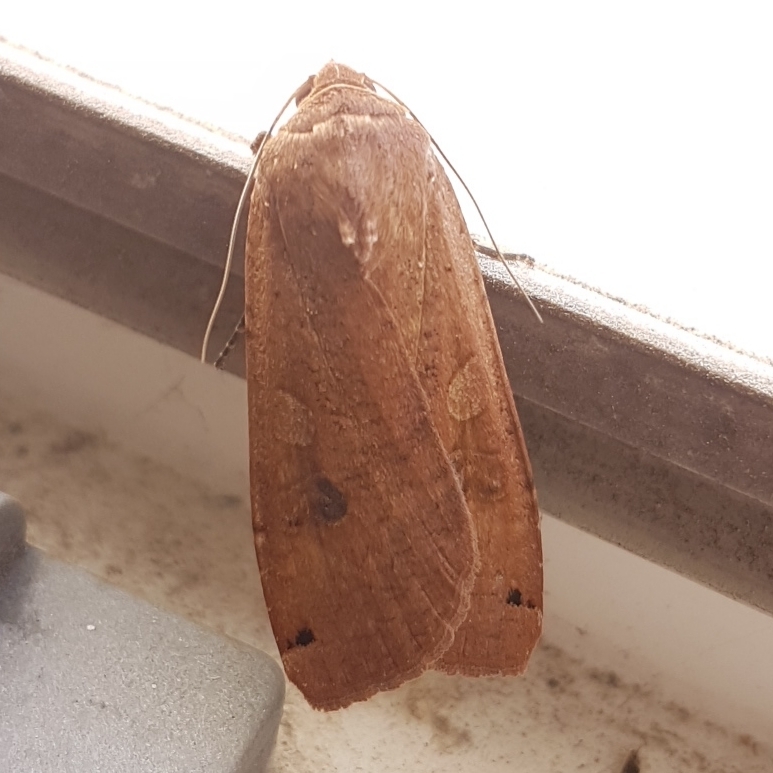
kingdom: Animalia
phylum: Arthropoda
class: Insecta
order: Lepidoptera
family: Noctuidae
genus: Noctua
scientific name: Noctua pronuba
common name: Large yellow underwing
